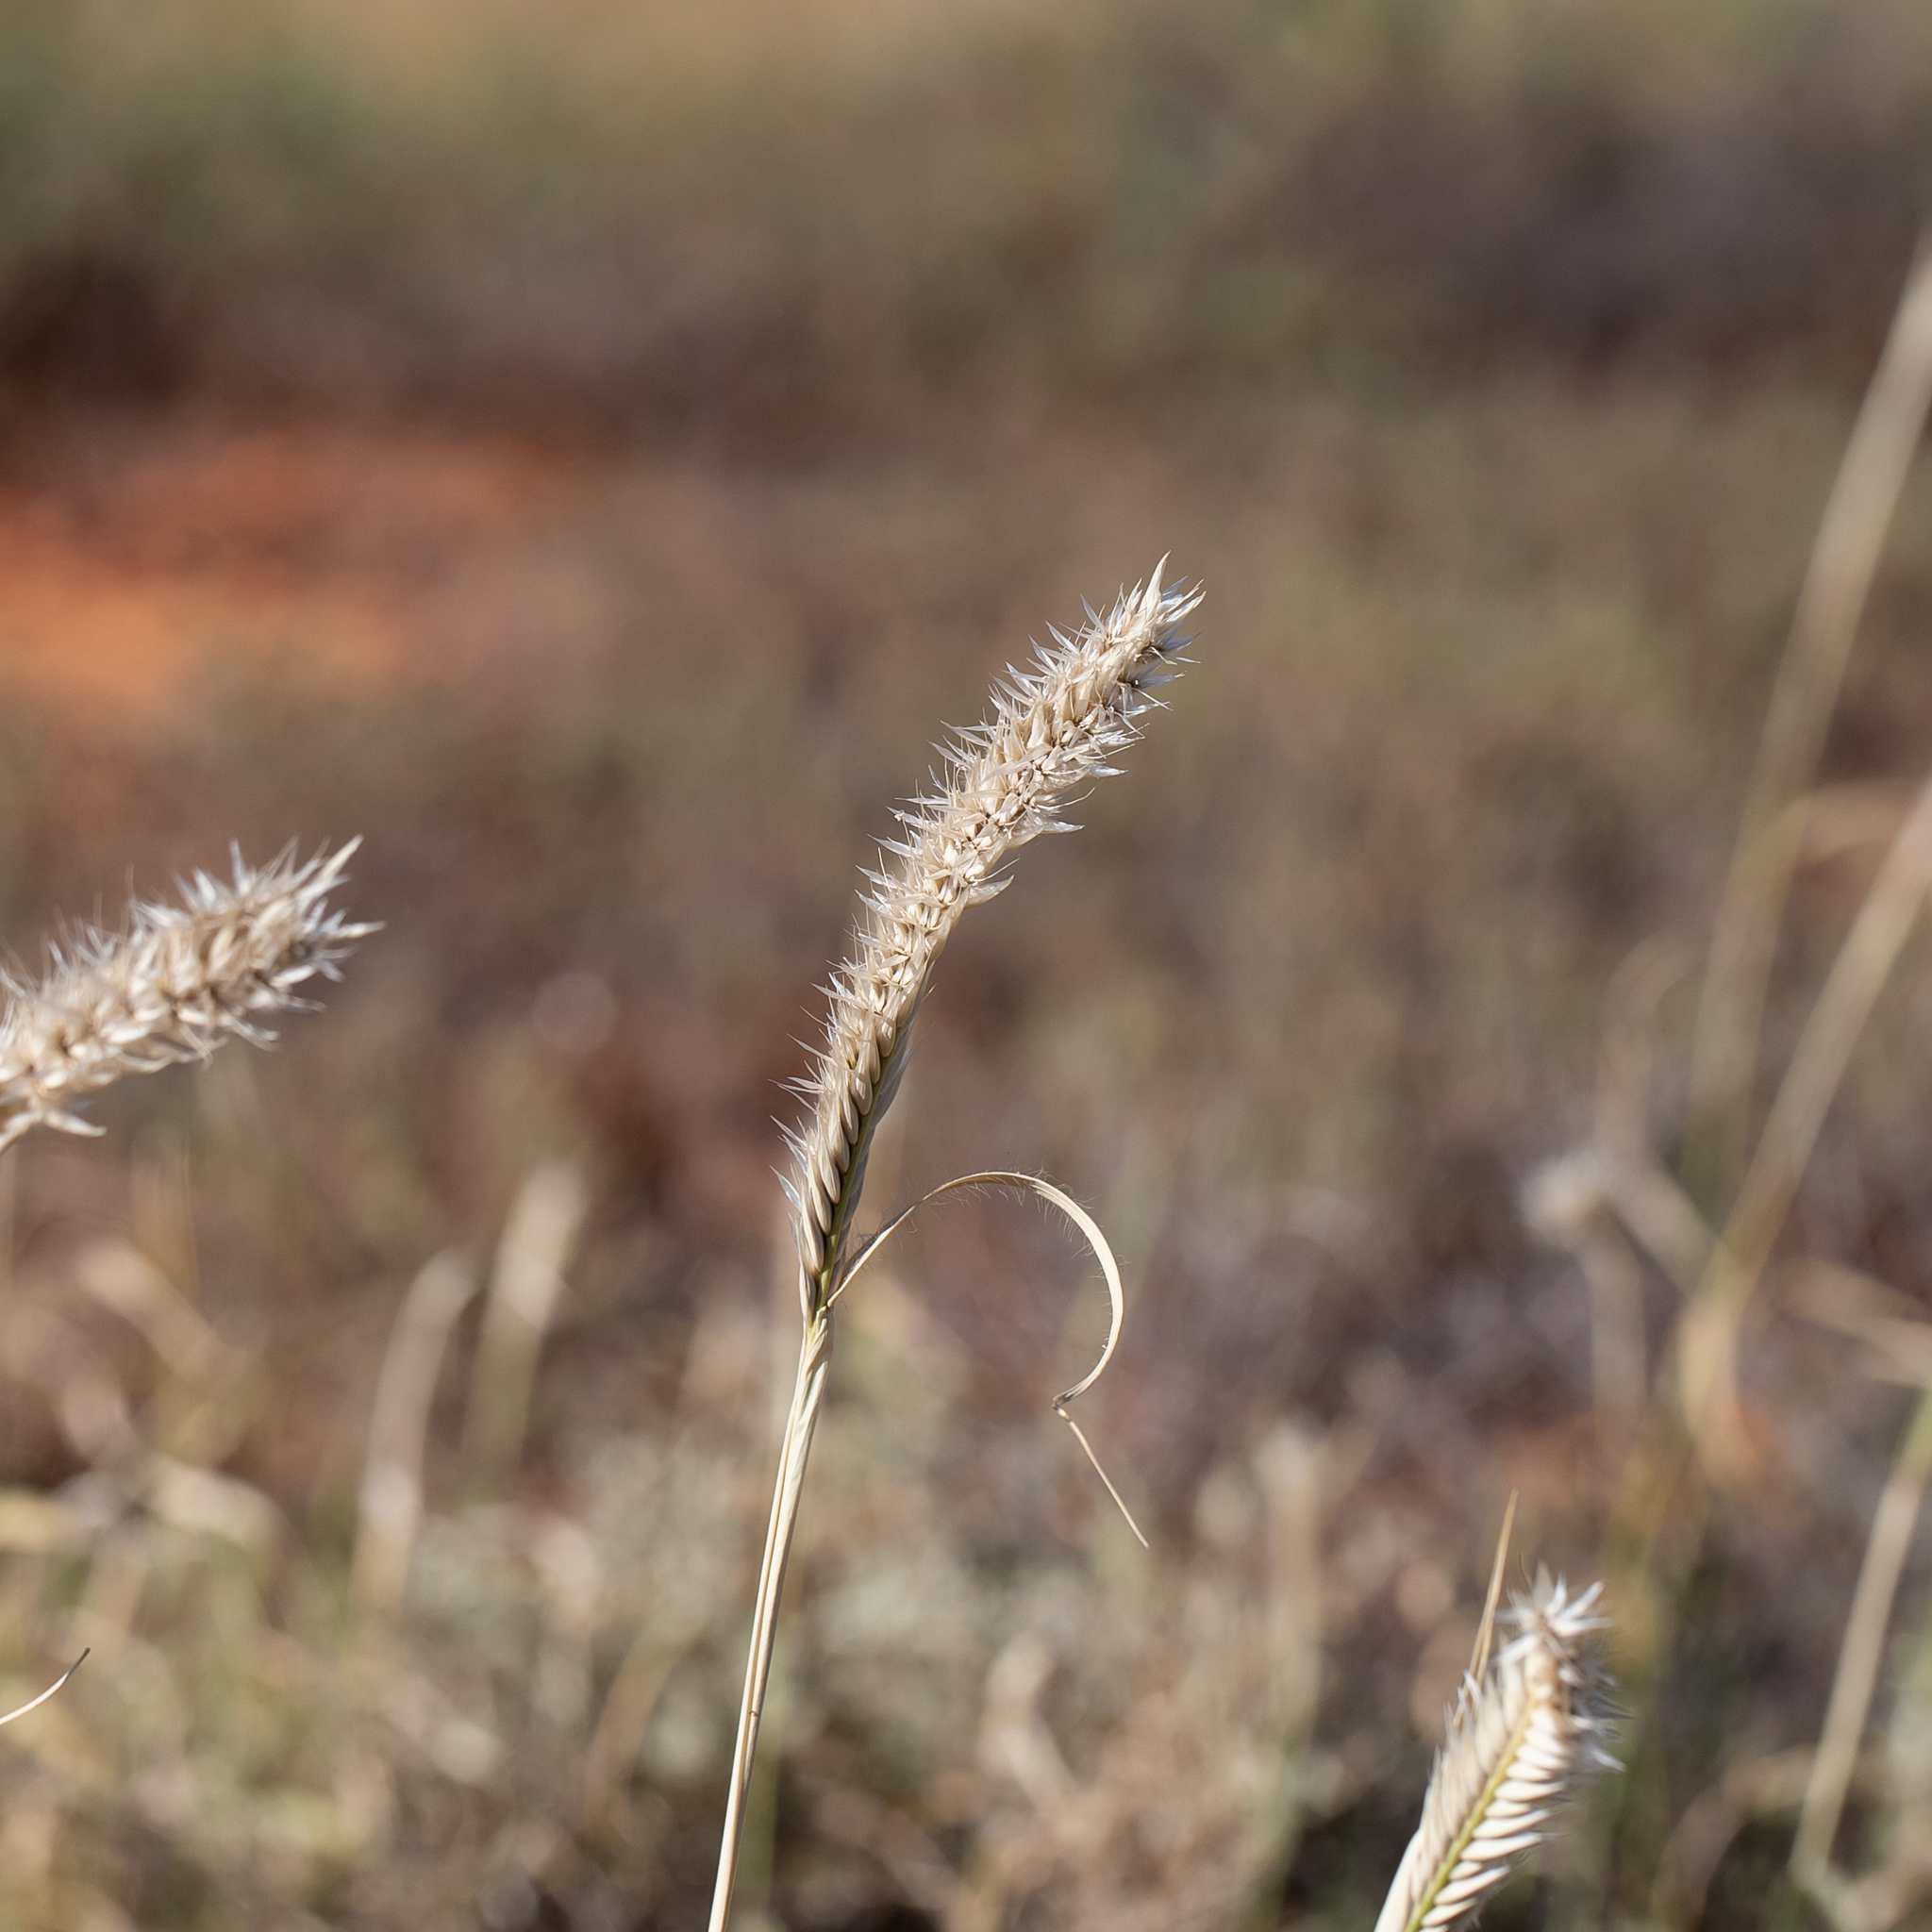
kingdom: Plantae
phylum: Tracheophyta
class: Liliopsida
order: Poales
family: Poaceae
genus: Astrebla
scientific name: Astrebla pectinata
